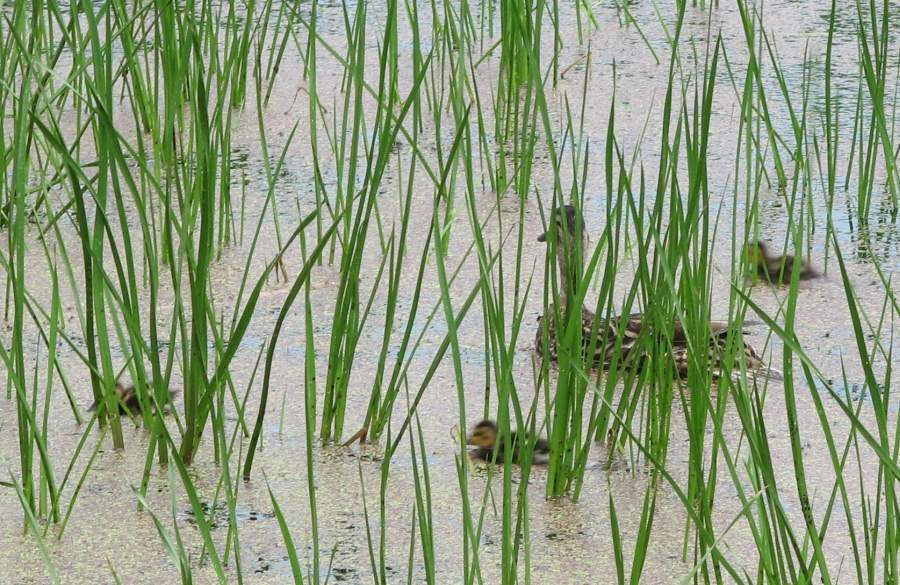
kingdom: Animalia
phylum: Chordata
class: Aves
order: Anseriformes
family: Anatidae
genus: Anas
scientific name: Anas platyrhynchos
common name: Mallard
